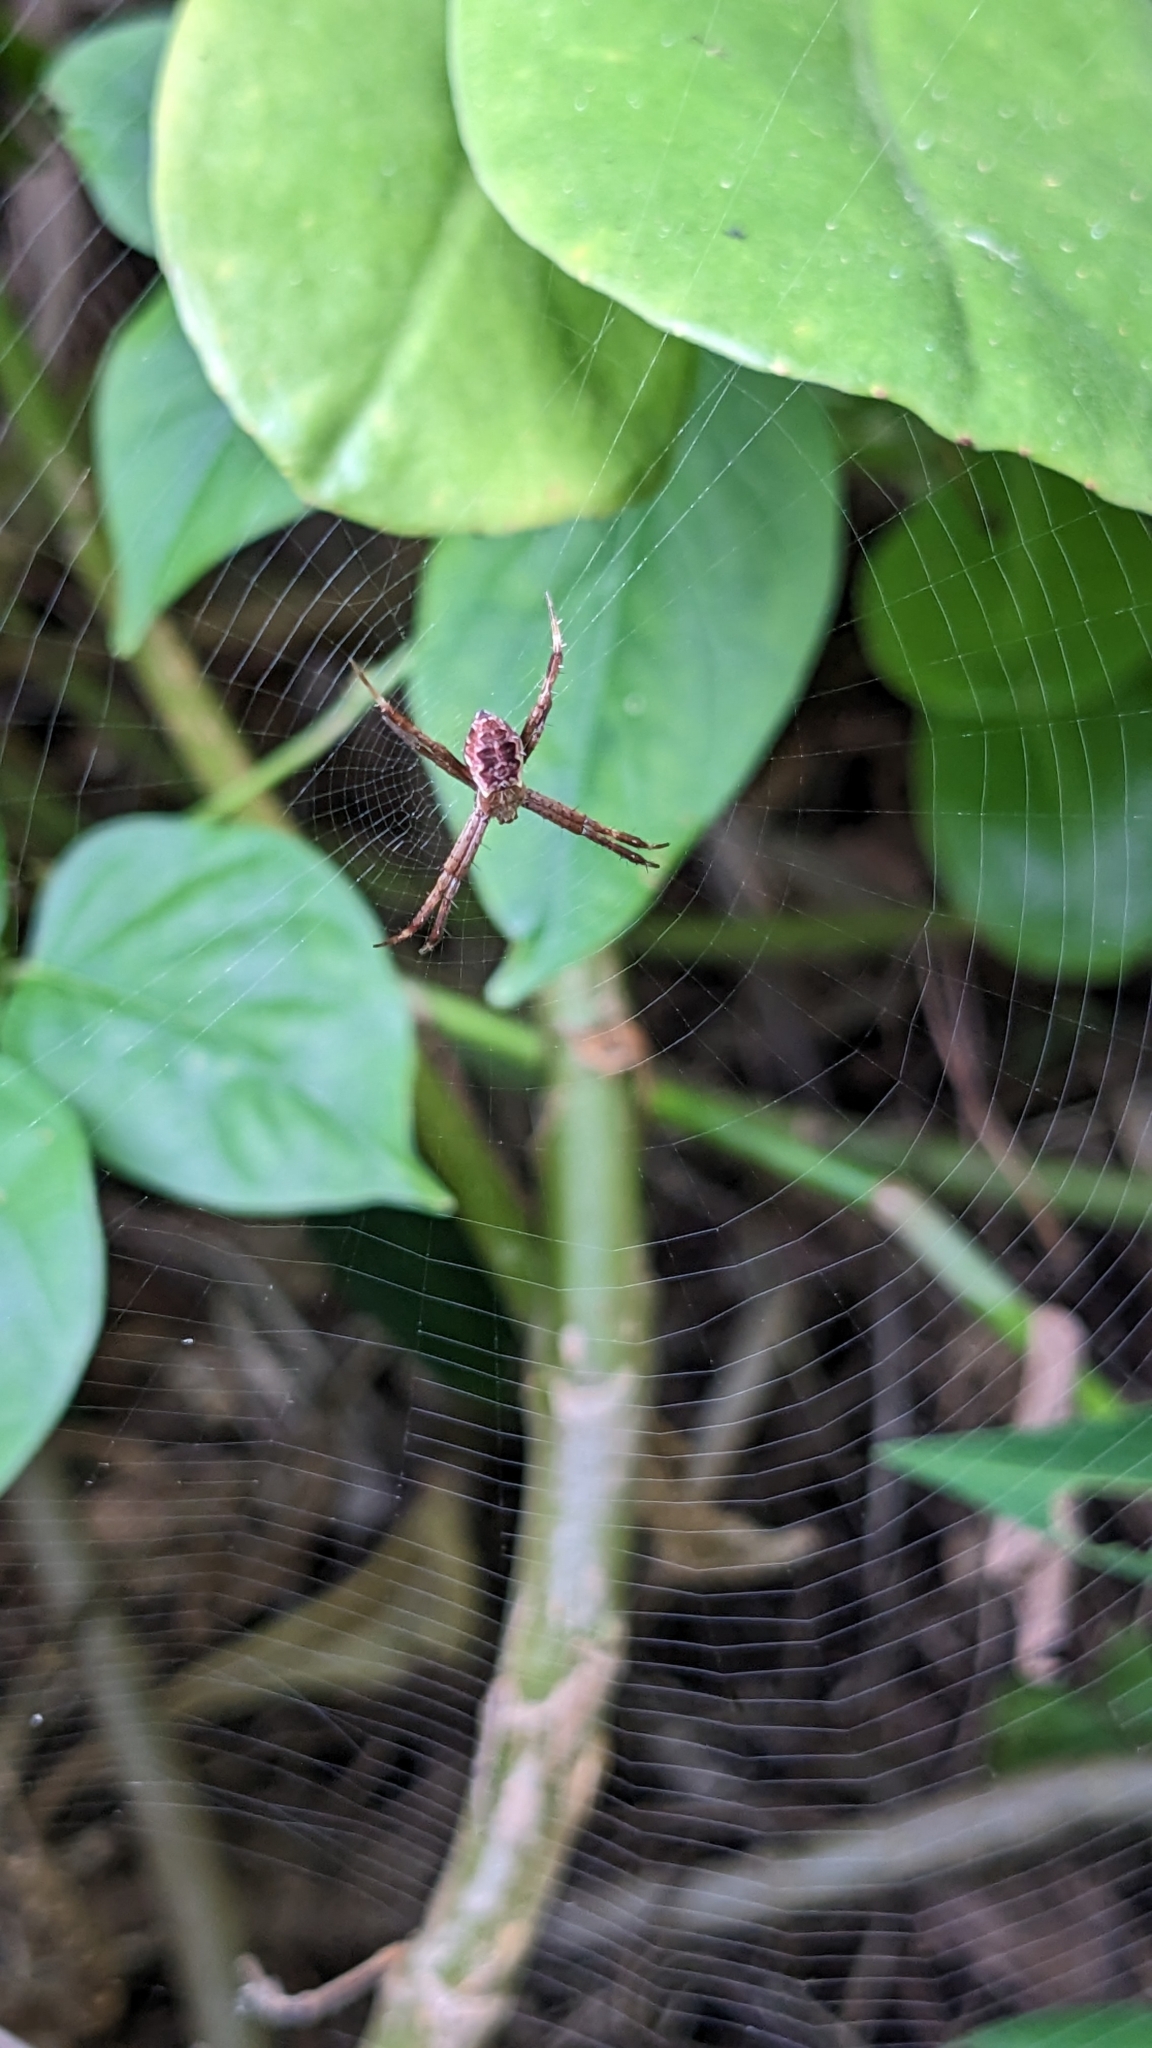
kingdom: Animalia
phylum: Arthropoda
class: Arachnida
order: Araneae
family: Araneidae
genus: Argiope
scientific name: Argiope appensa
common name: Garden spider
